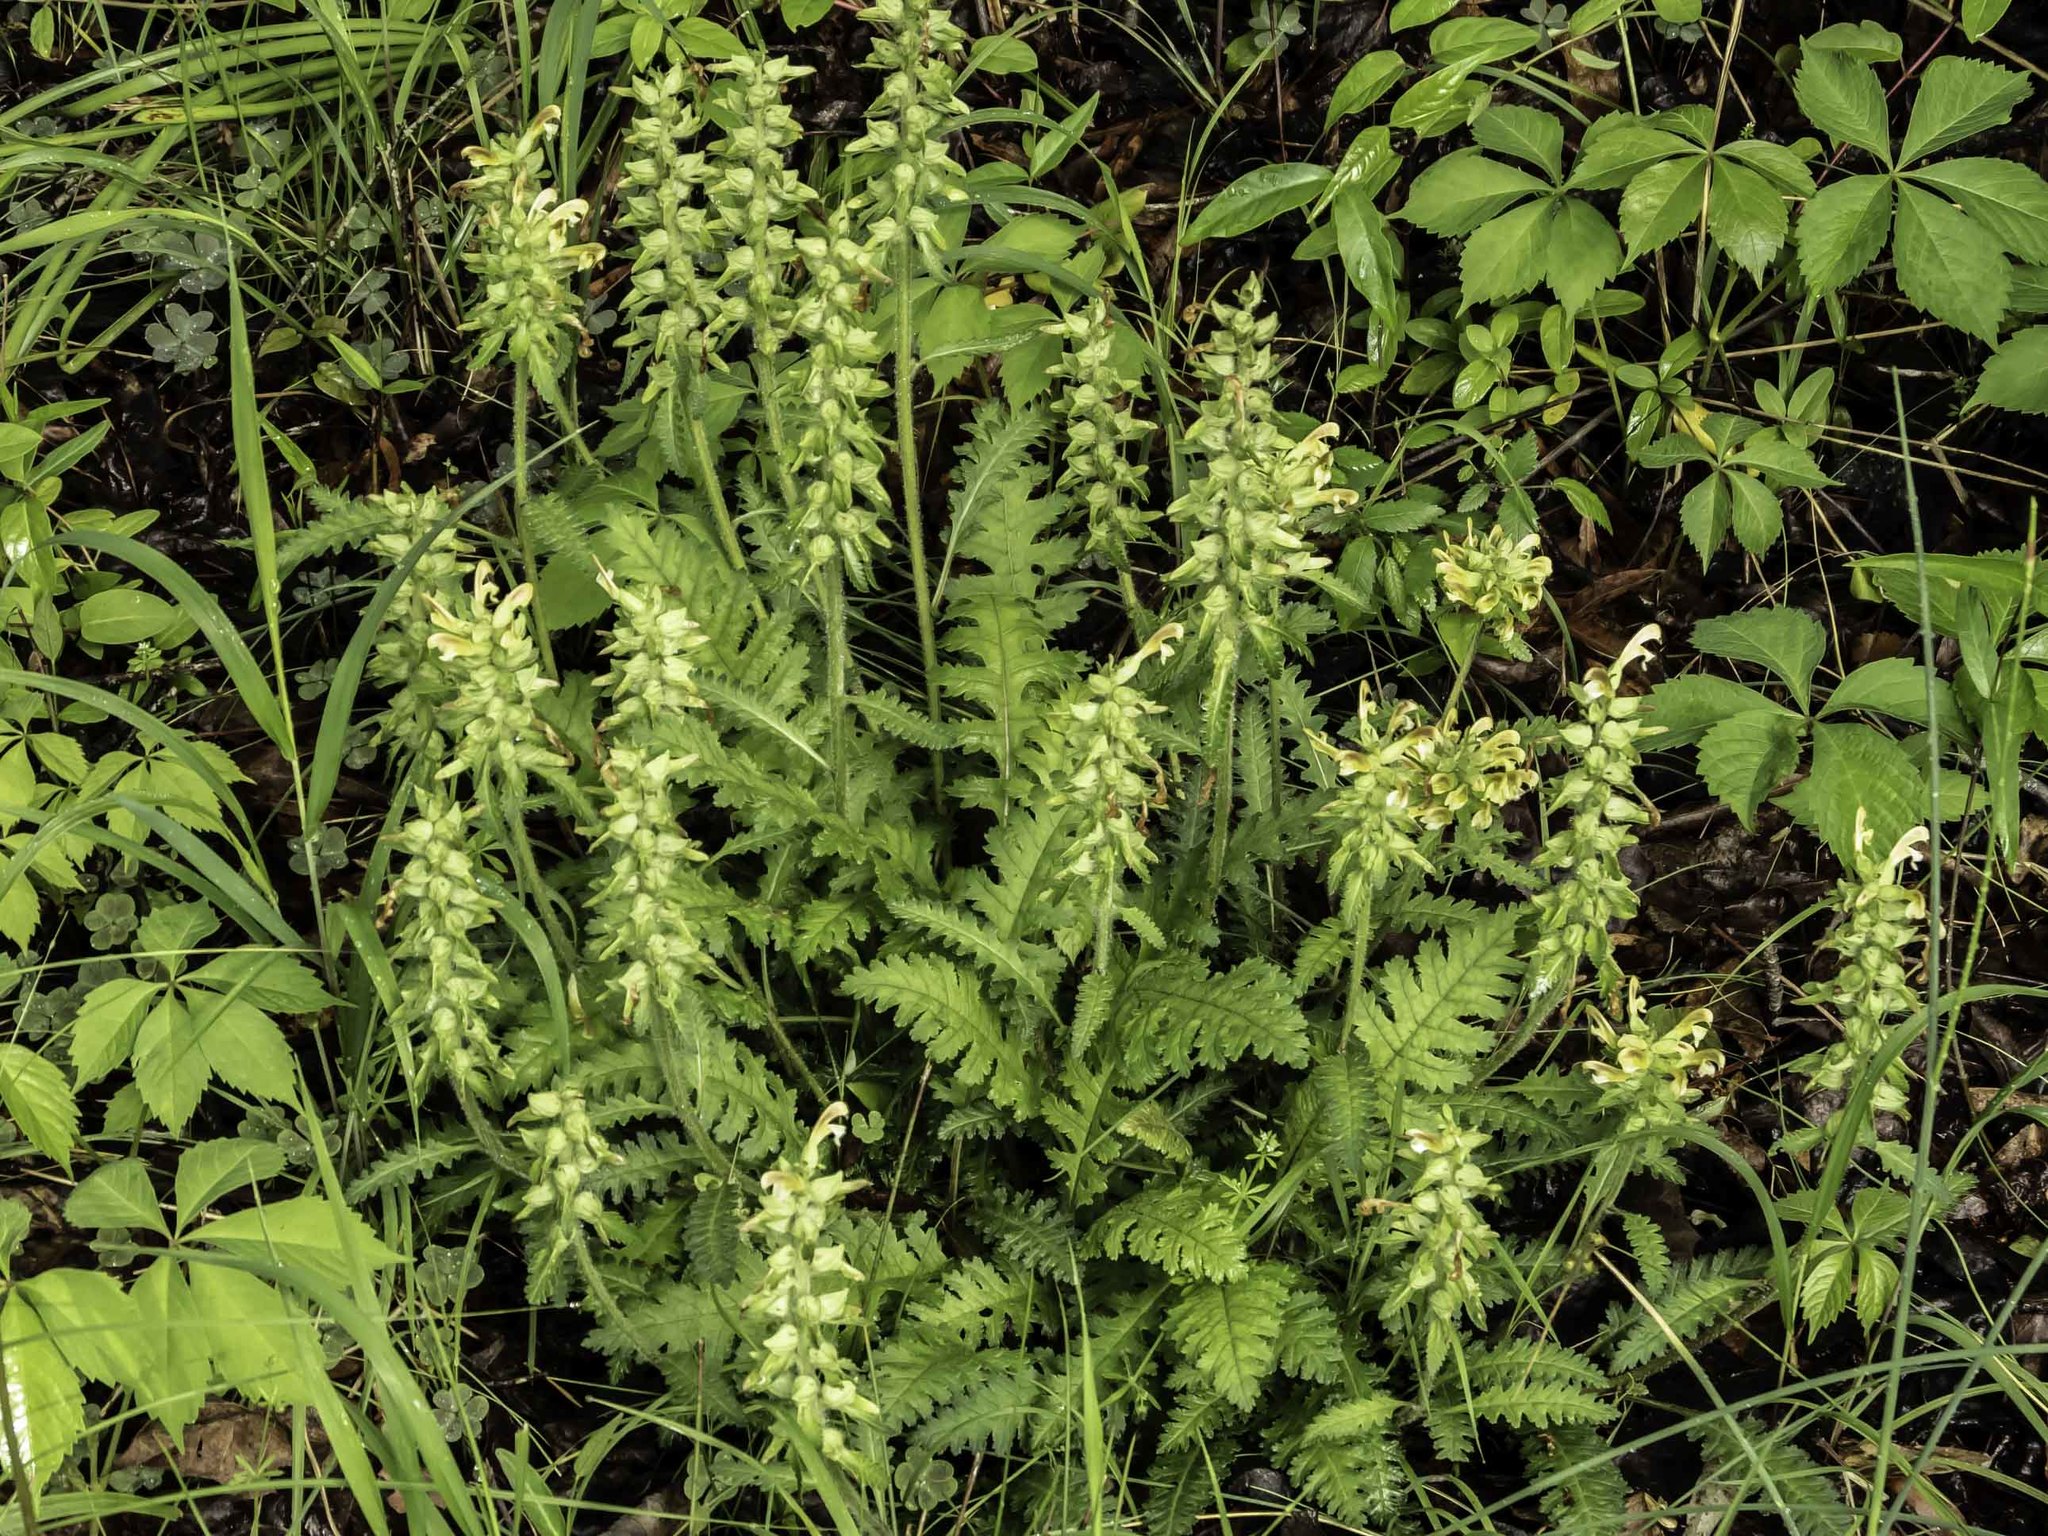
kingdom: Plantae
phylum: Tracheophyta
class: Magnoliopsida
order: Lamiales
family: Orobanchaceae
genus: Pedicularis
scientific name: Pedicularis canadensis
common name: Early lousewort
